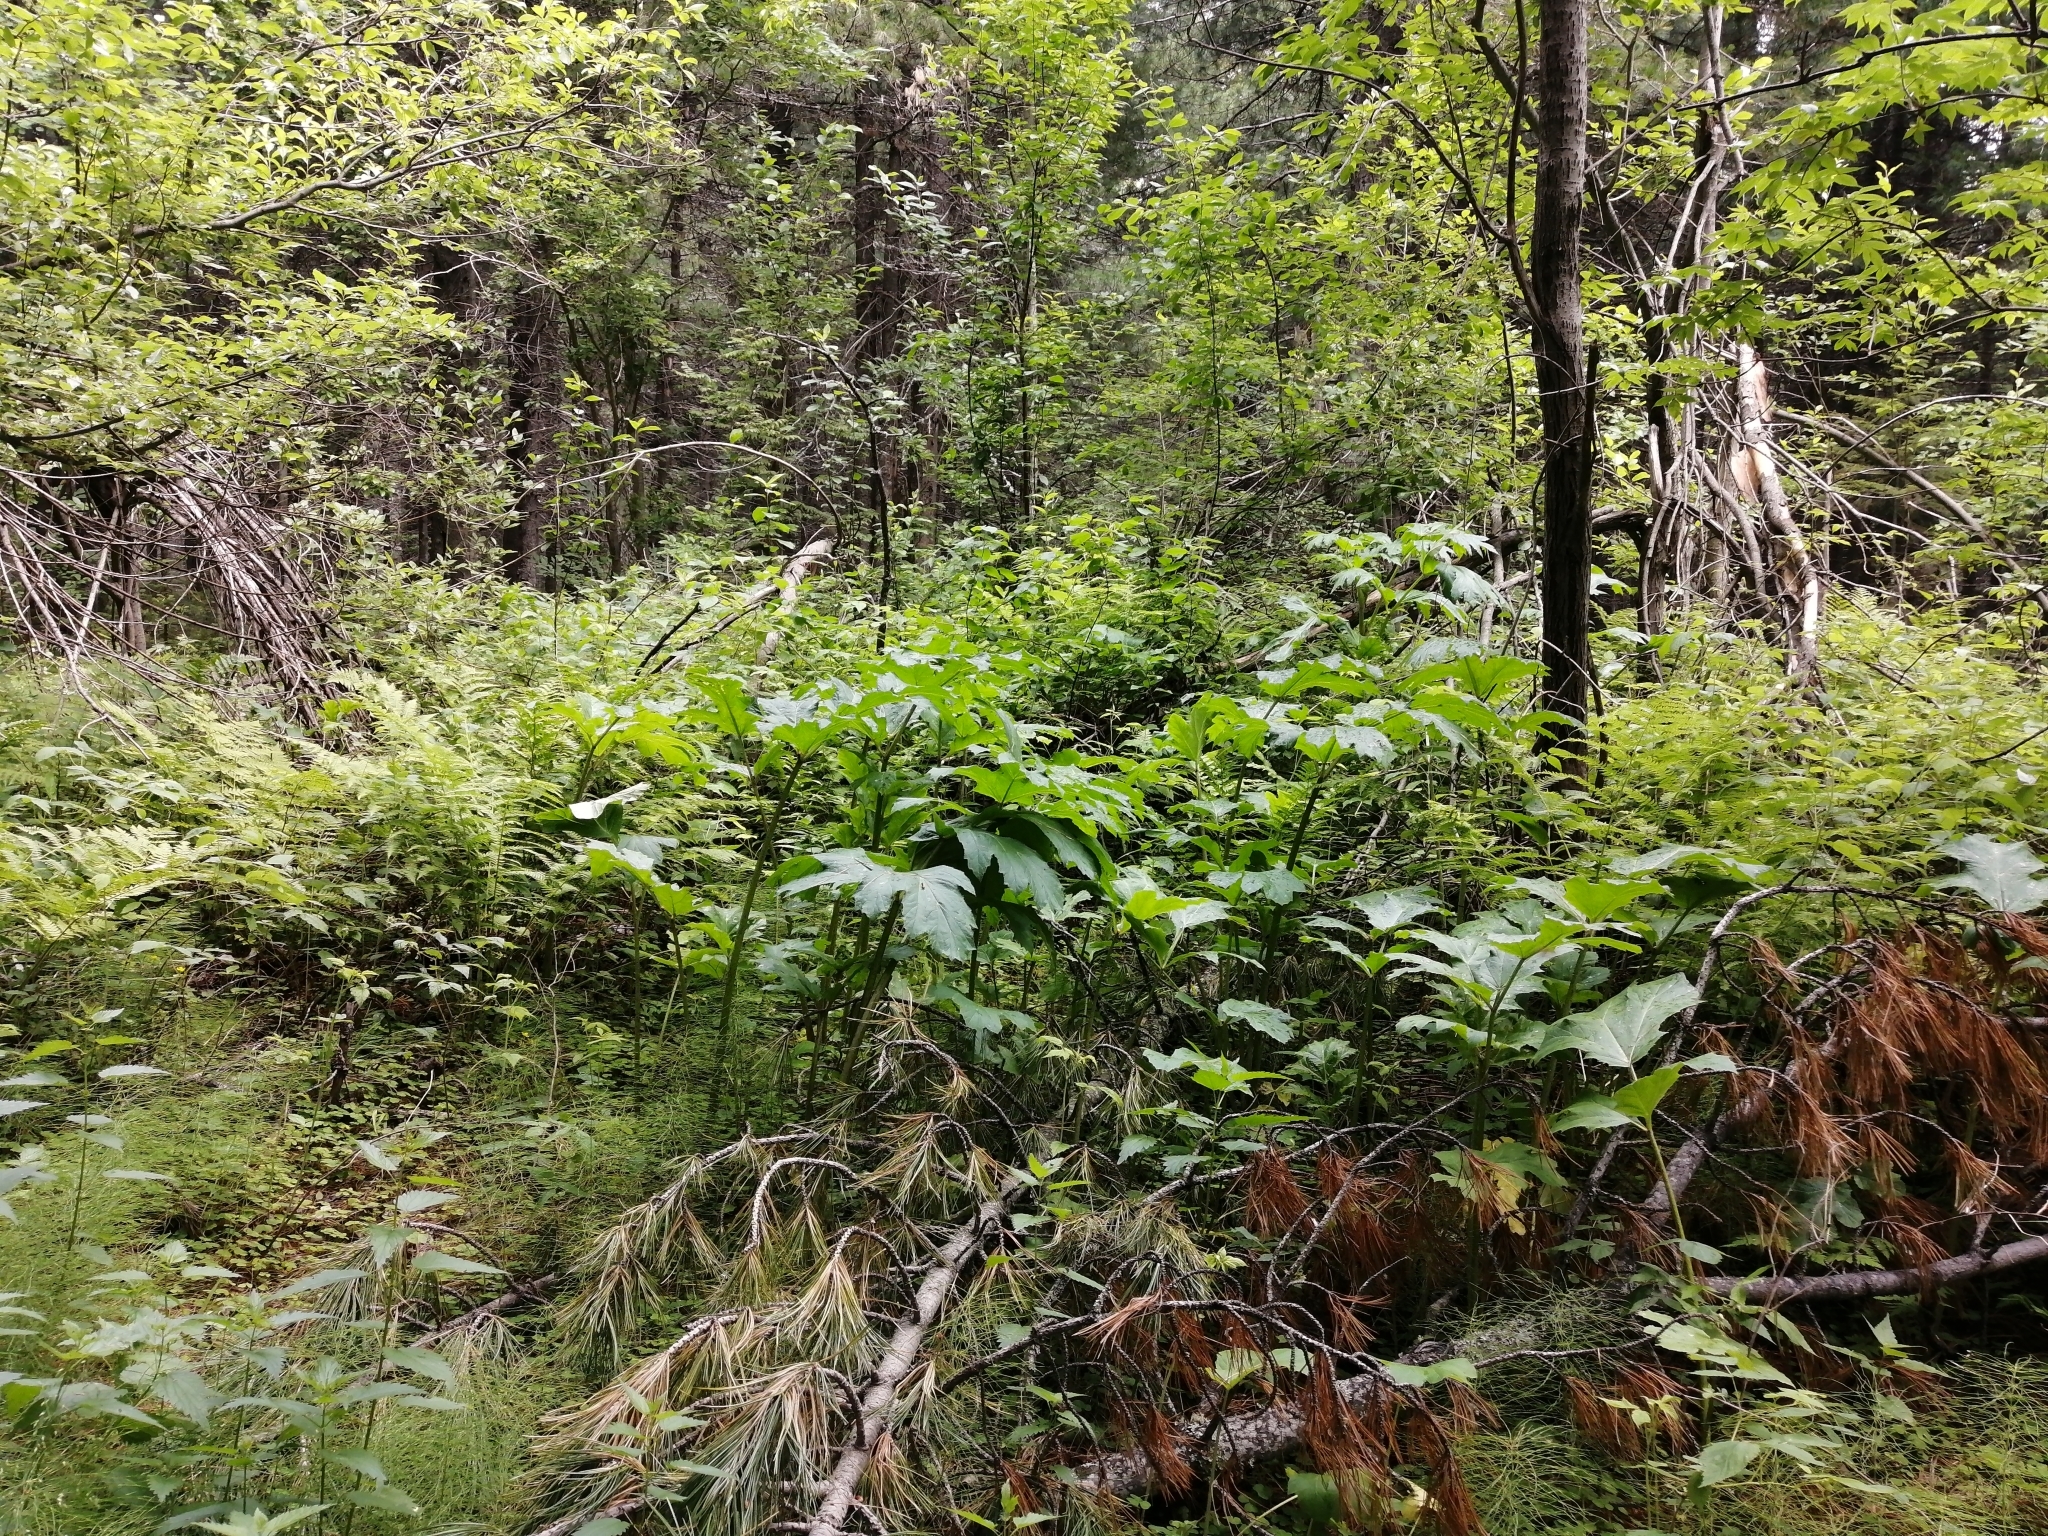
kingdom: Plantae
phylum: Tracheophyta
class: Magnoliopsida
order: Apiales
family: Apiaceae
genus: Heracleum
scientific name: Heracleum sosnowskyi
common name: Sosnowsky's hogweed
